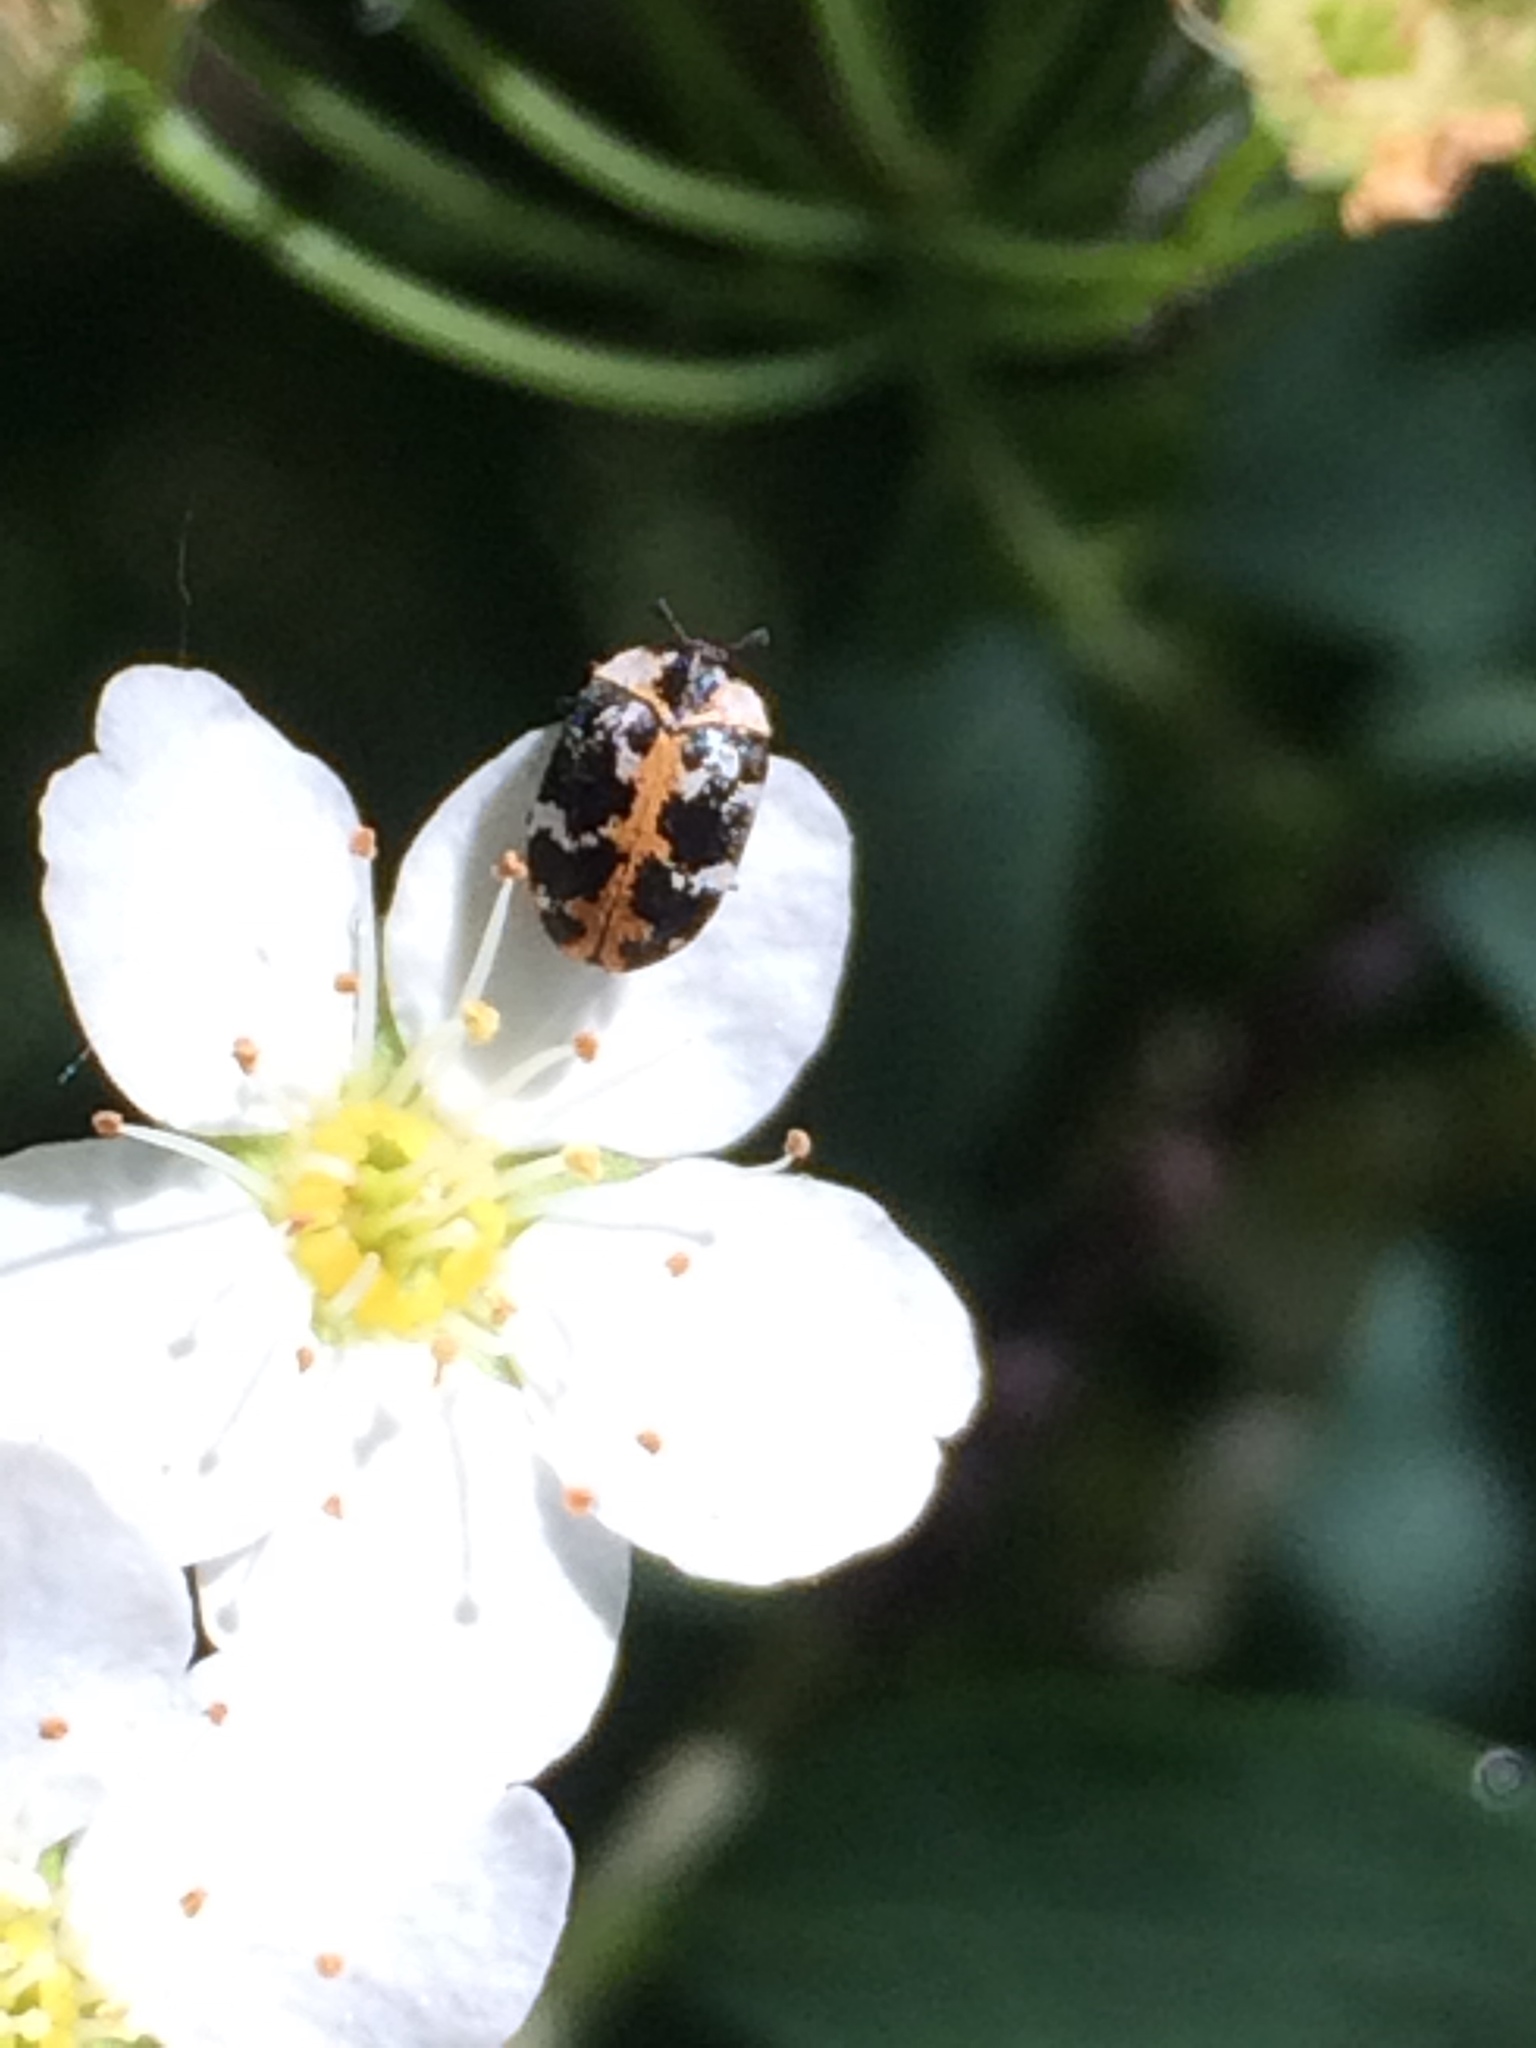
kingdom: Animalia
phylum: Arthropoda
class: Insecta
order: Coleoptera
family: Dermestidae
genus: Anthrenus
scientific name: Anthrenus scrophulariae
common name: Buffalo carpet beetle
